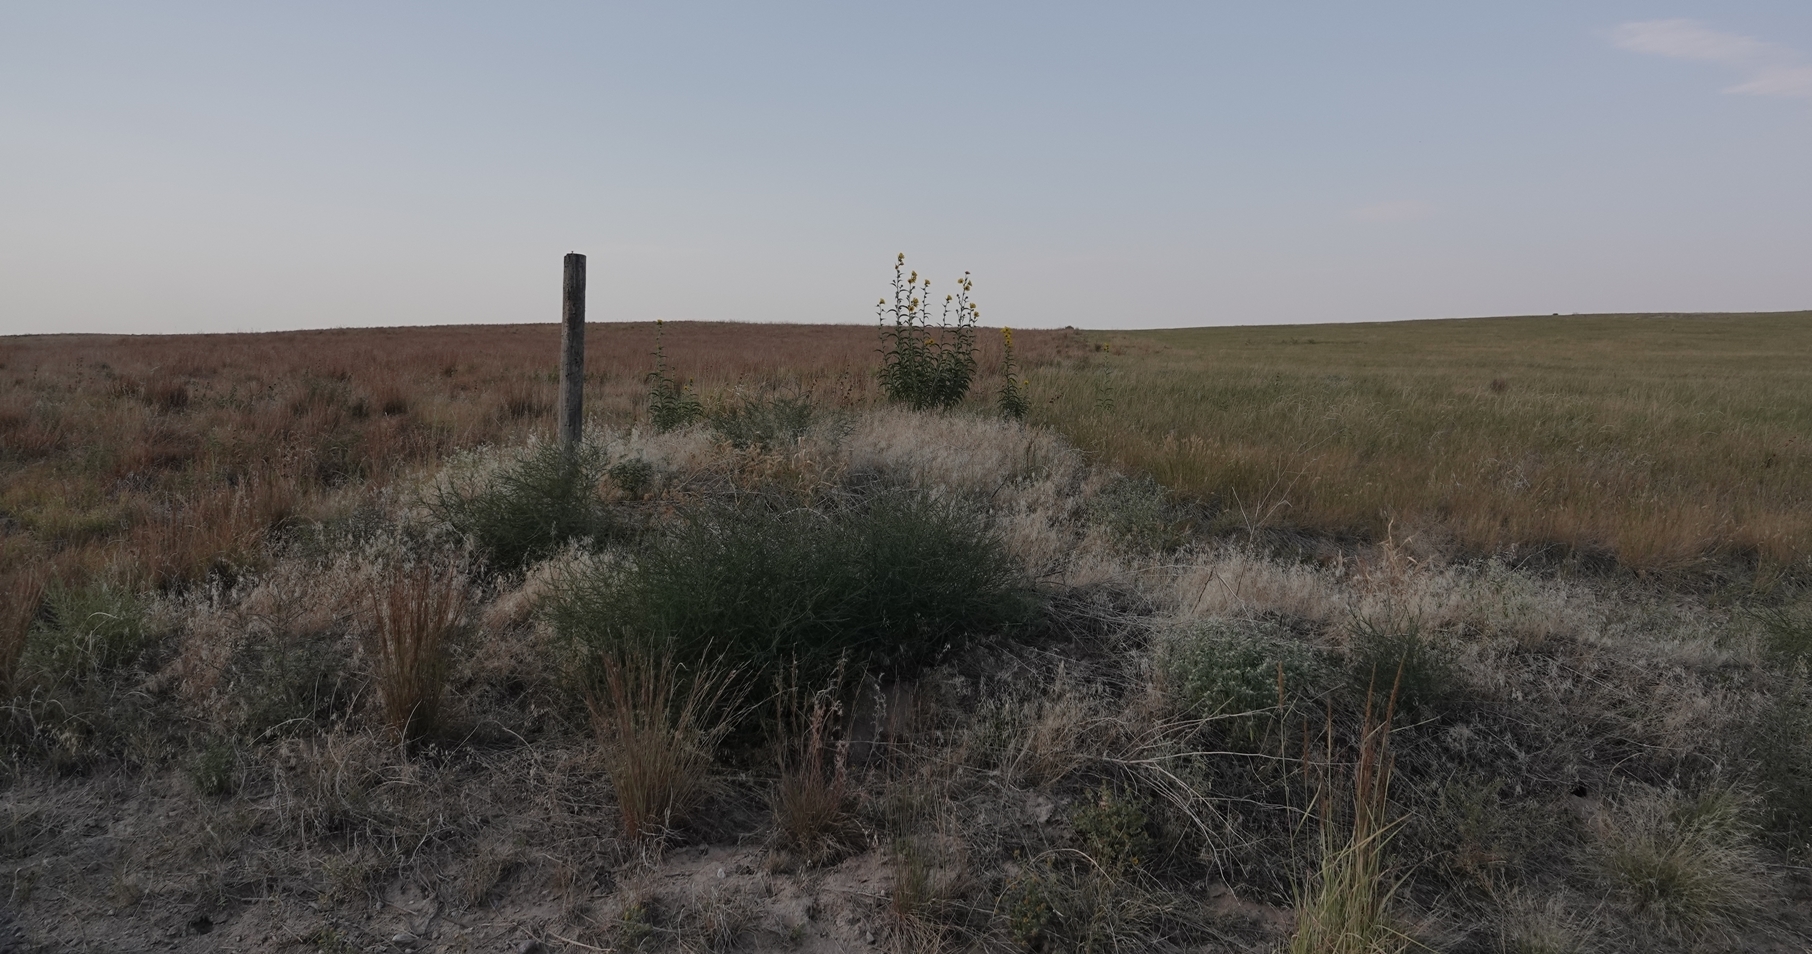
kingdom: Plantae
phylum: Tracheophyta
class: Magnoliopsida
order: Asterales
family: Asteraceae
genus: Helianthus
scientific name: Helianthus maximiliani
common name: Maximilian's sunflower
